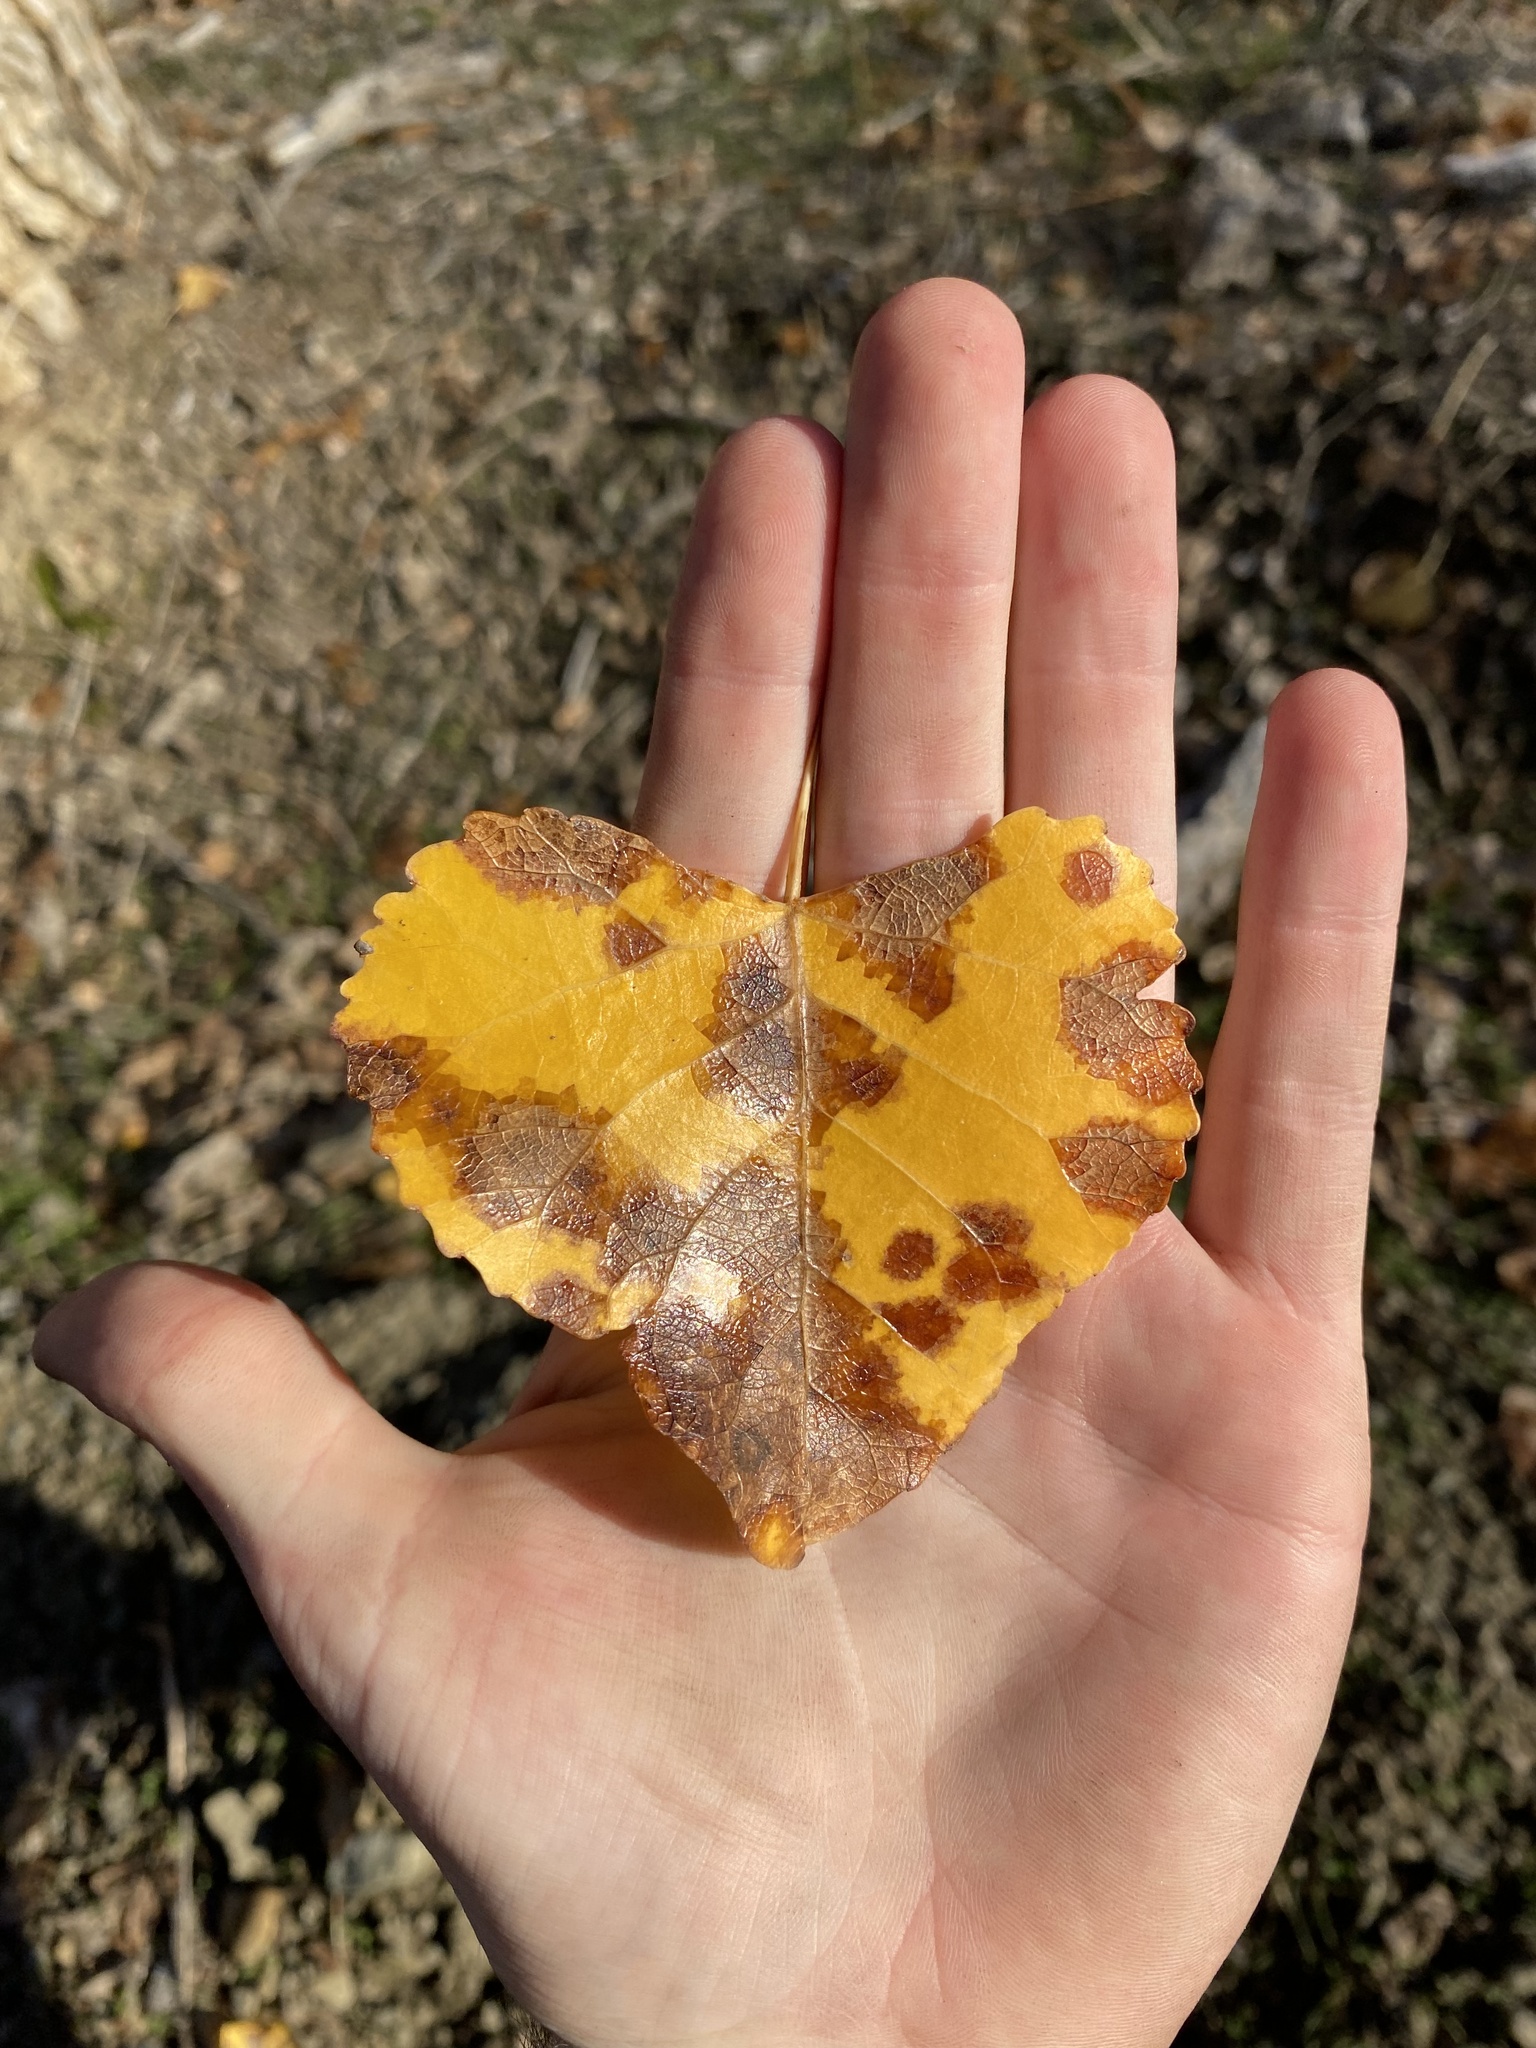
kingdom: Plantae
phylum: Tracheophyta
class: Magnoliopsida
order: Malpighiales
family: Salicaceae
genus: Populus
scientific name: Populus fremontii
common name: Fremont's cottonwood
